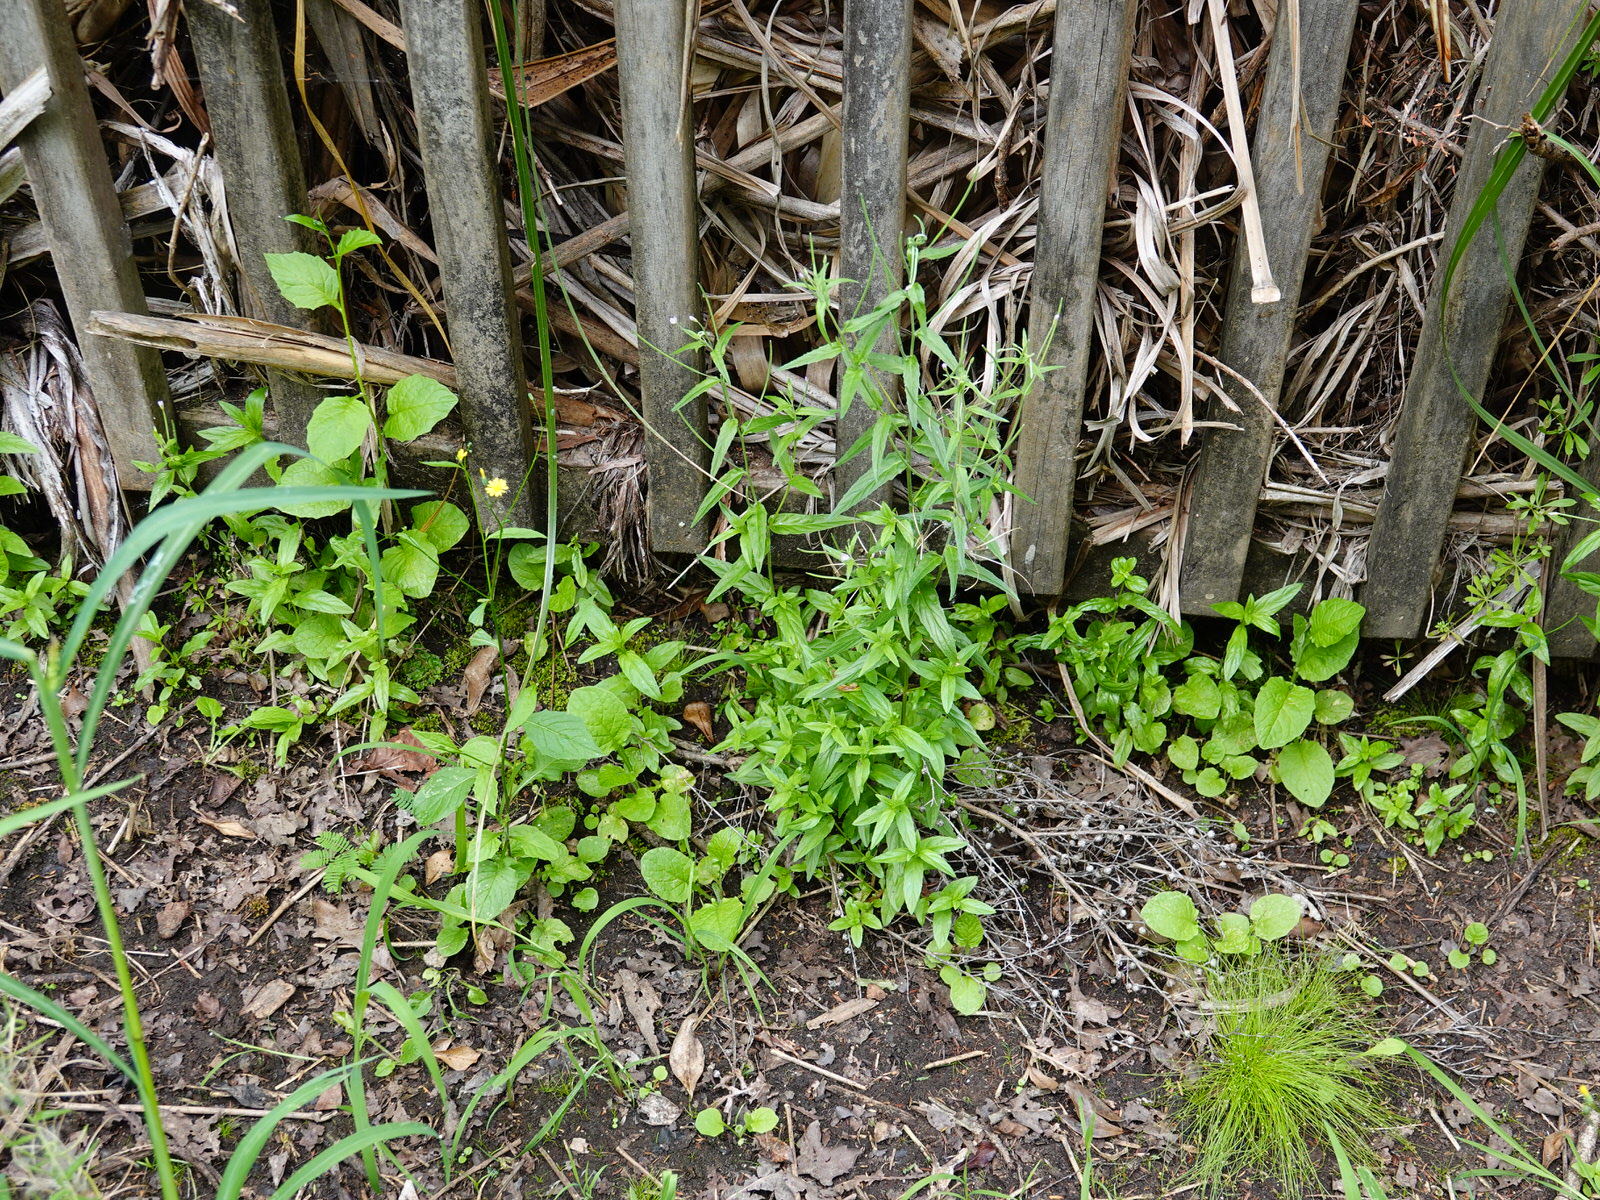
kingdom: Plantae
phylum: Tracheophyta
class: Magnoliopsida
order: Myrtales
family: Onagraceae
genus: Epilobium
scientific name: Epilobium ciliatum
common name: American willowherb
